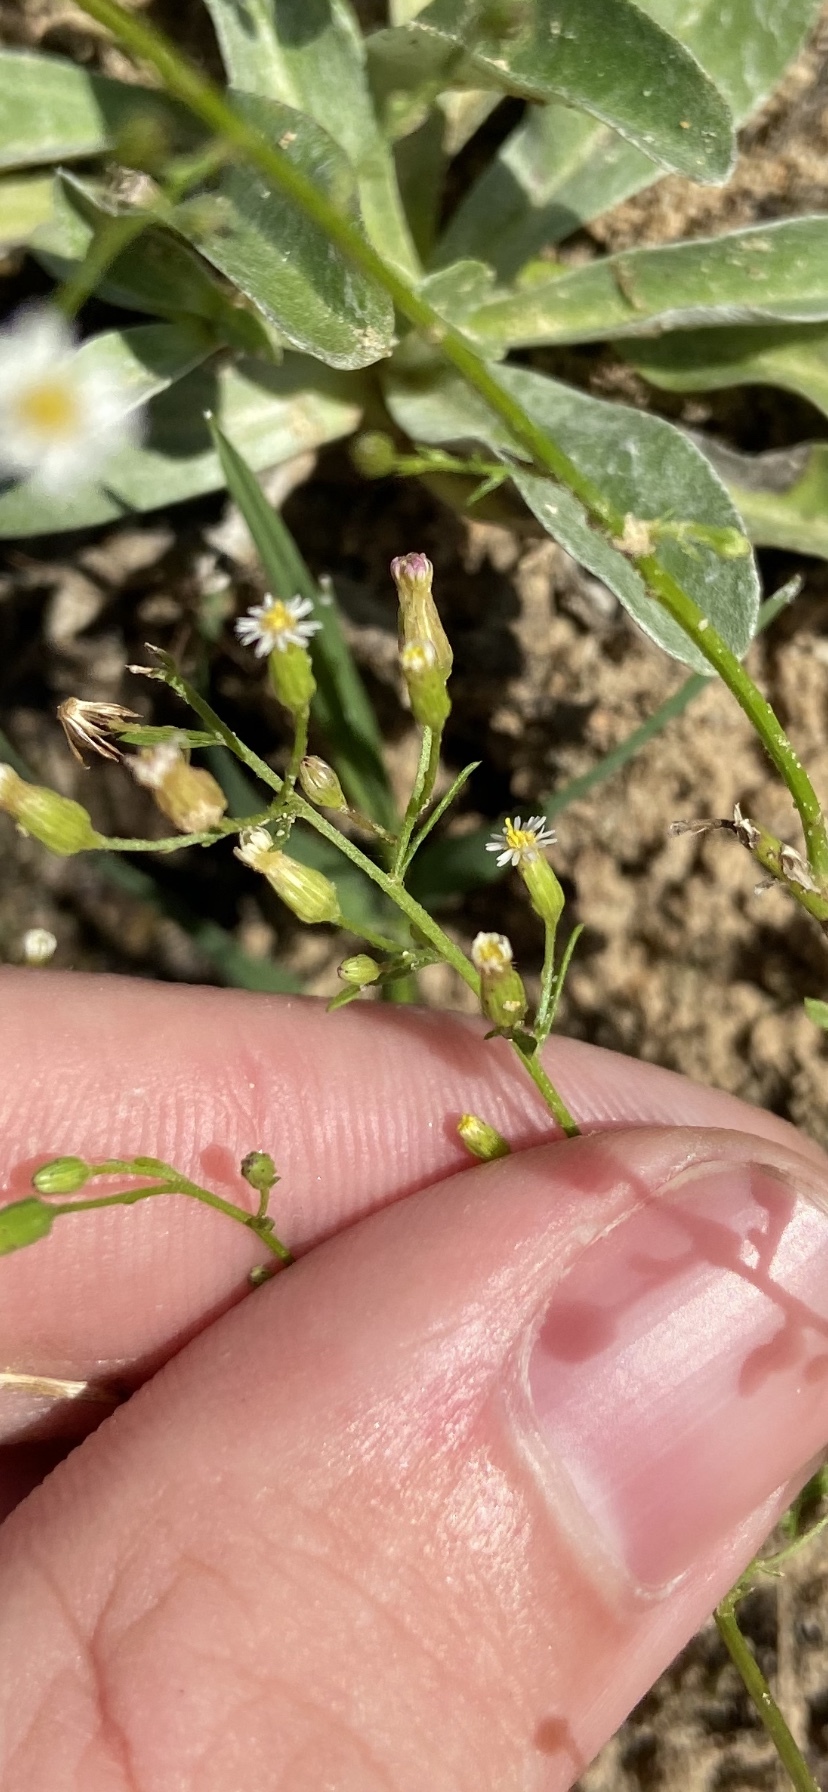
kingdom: Plantae
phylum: Tracheophyta
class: Magnoliopsida
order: Asterales
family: Asteraceae
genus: Erigeron
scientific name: Erigeron canadensis
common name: Canadian fleabane
